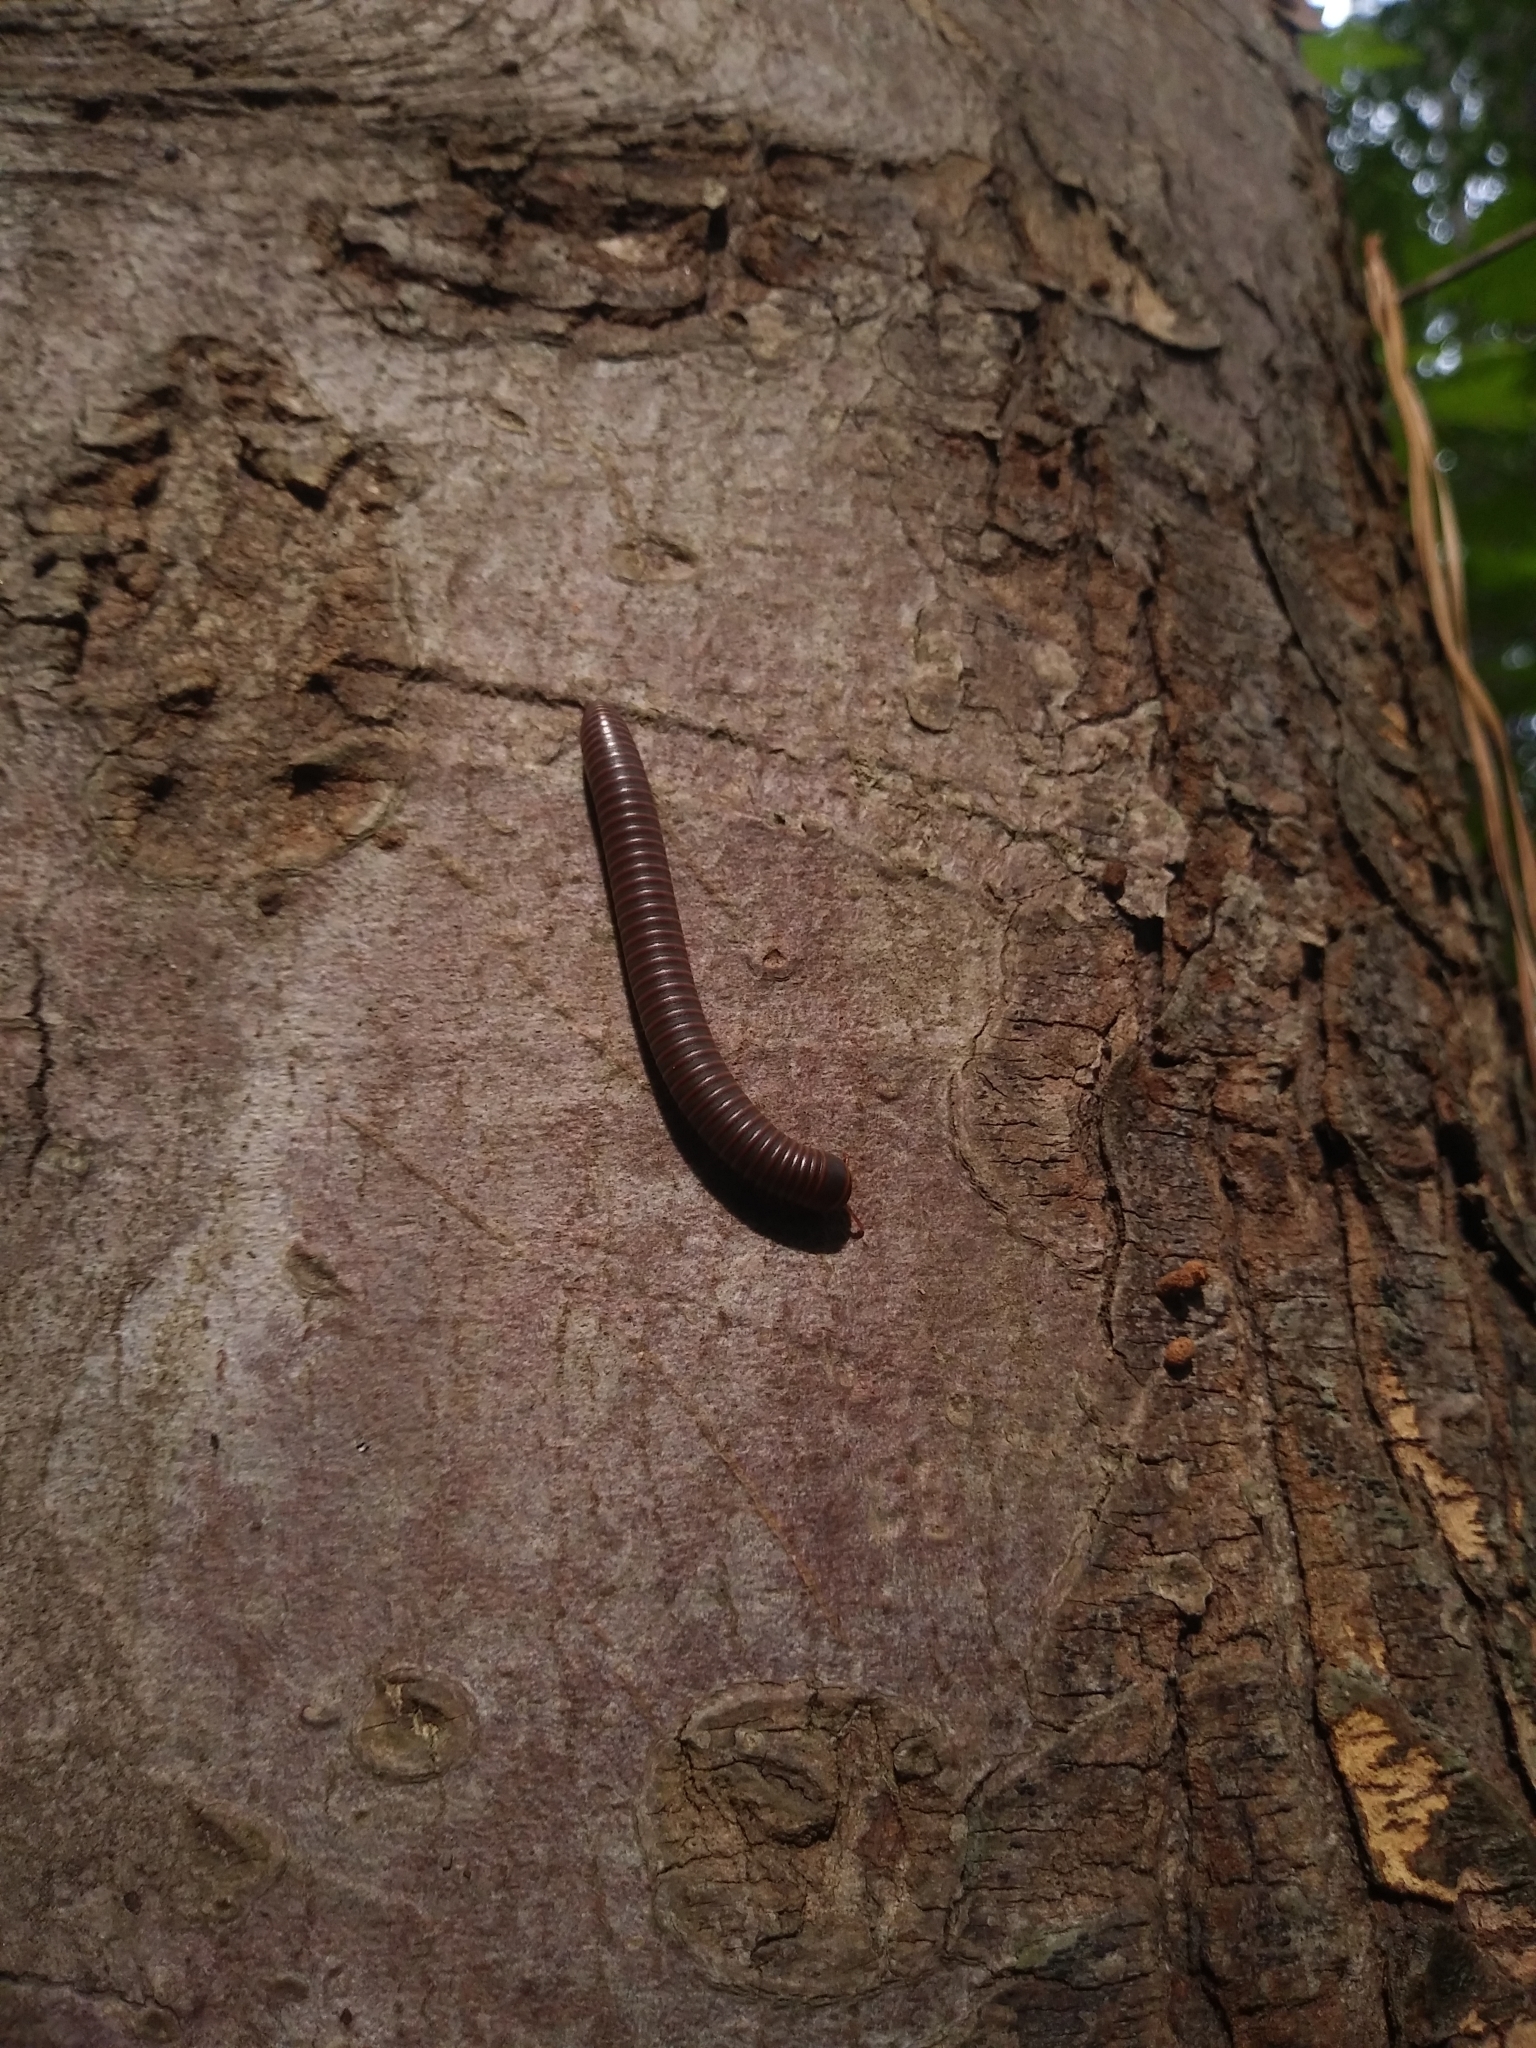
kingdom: Animalia
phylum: Arthropoda
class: Diplopoda
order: Spirobolida
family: Spirobolidae
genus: Narceus
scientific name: Narceus
